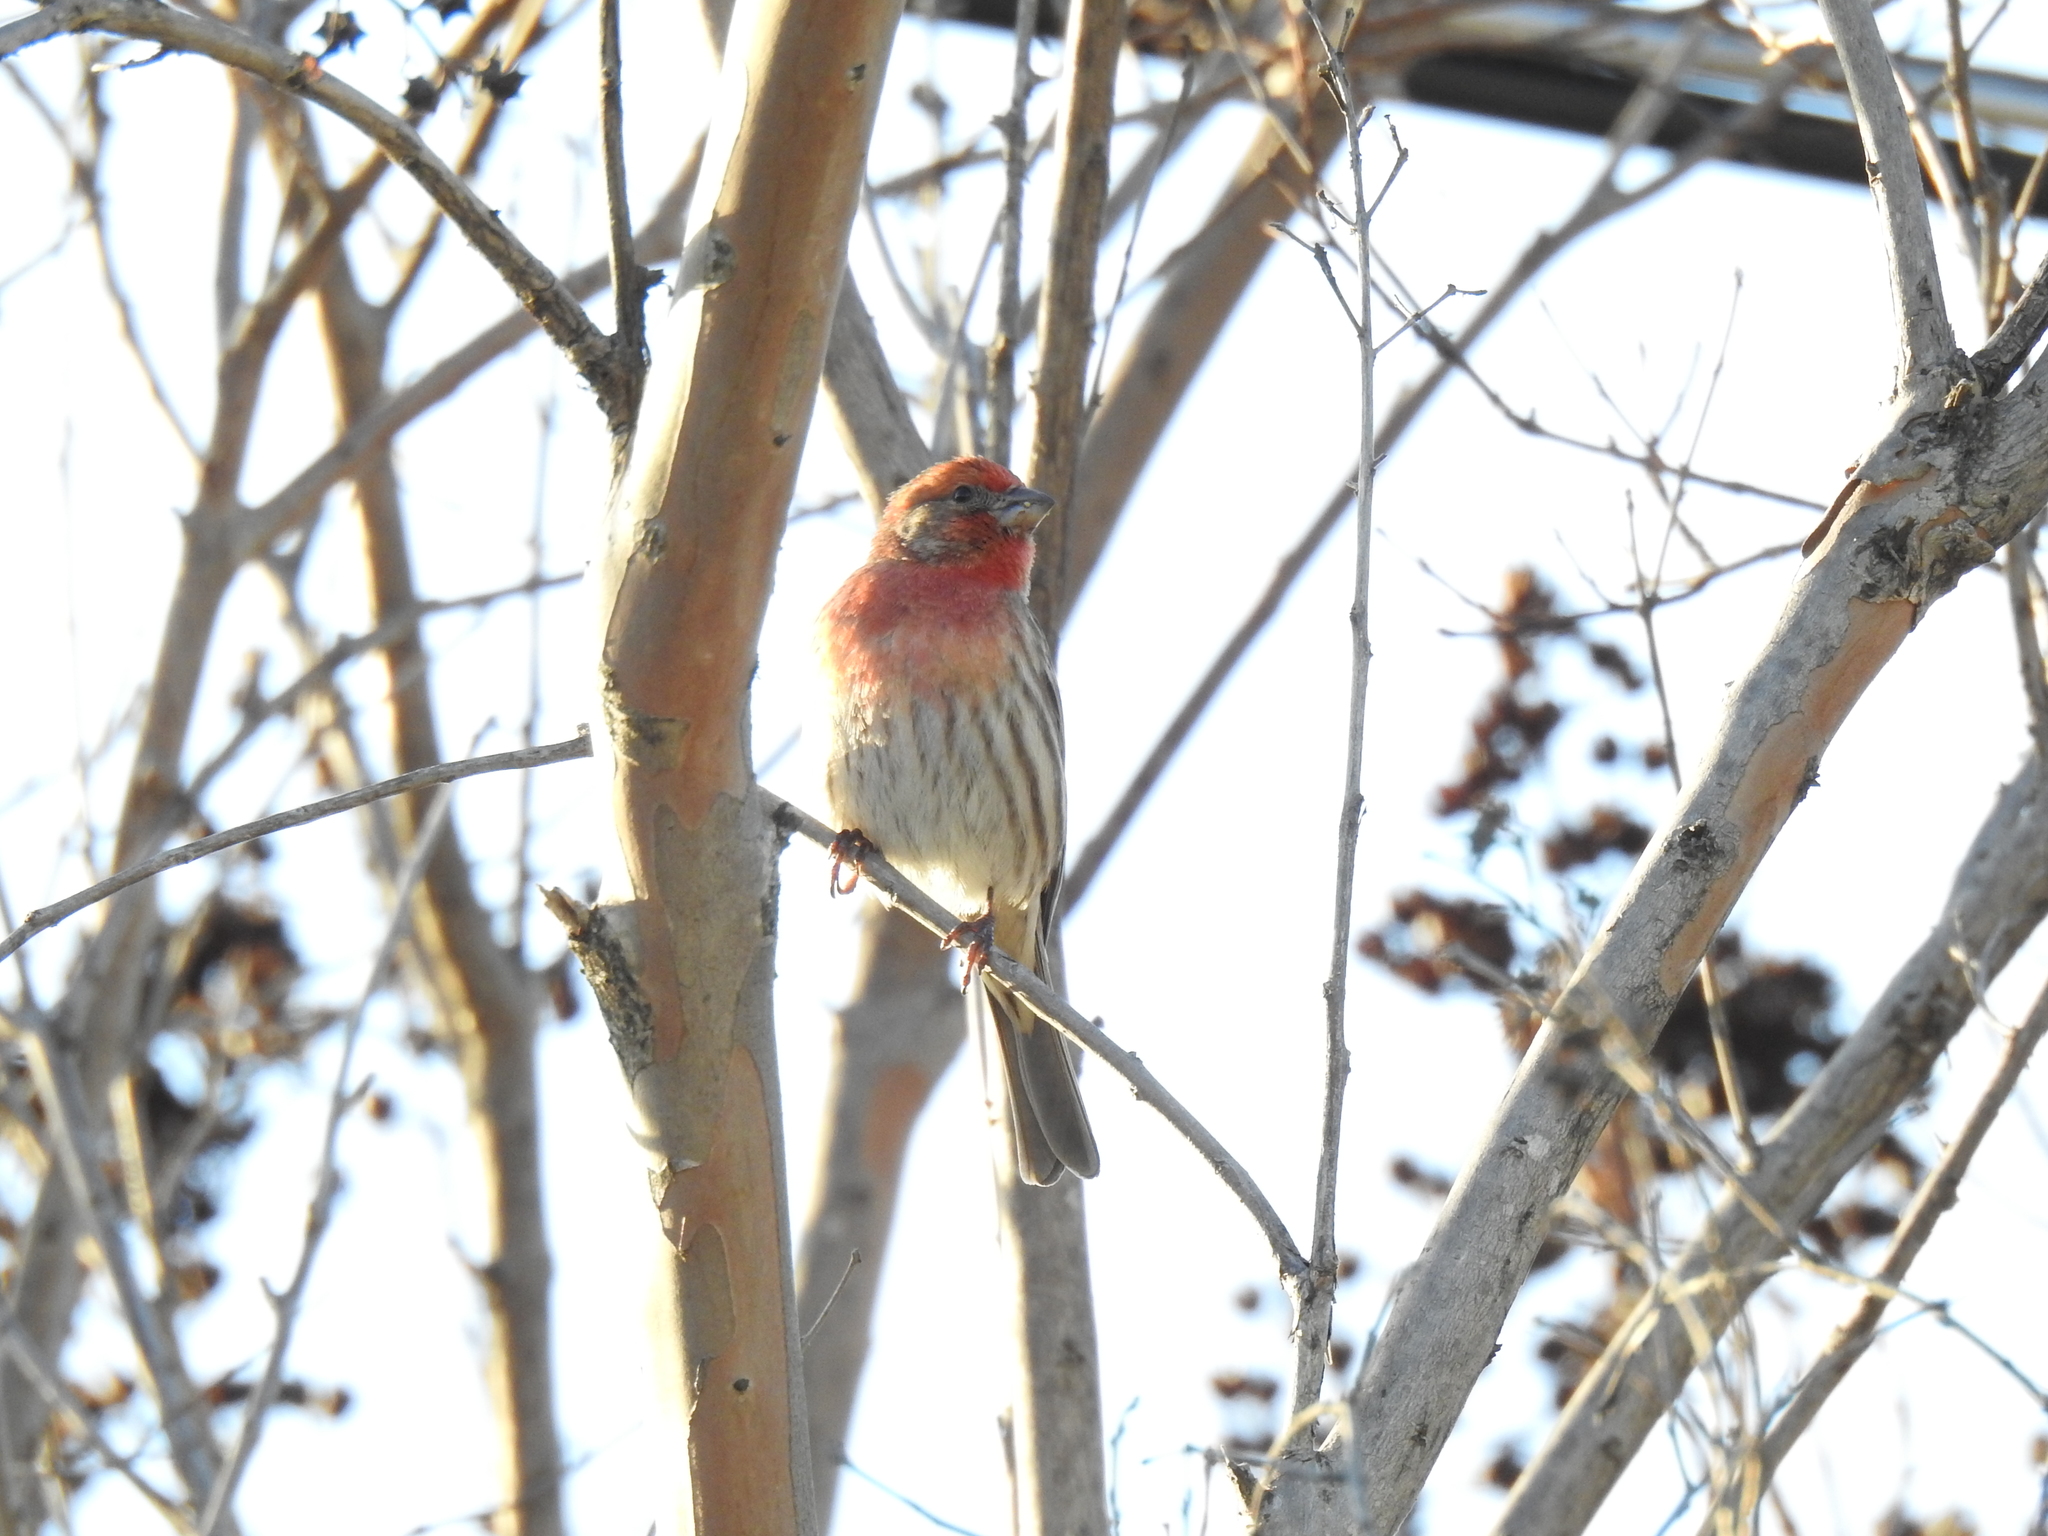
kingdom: Animalia
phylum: Chordata
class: Aves
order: Passeriformes
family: Fringillidae
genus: Haemorhous
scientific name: Haemorhous mexicanus
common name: House finch
